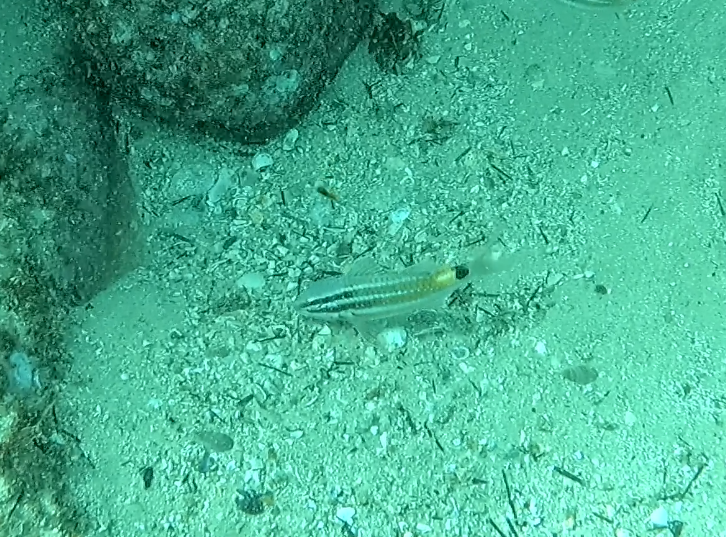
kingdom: Animalia
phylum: Chordata
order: Perciformes
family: Mullidae
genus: Parupeneus
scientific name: Parupeneus spilurus
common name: Blackspot goatfish
